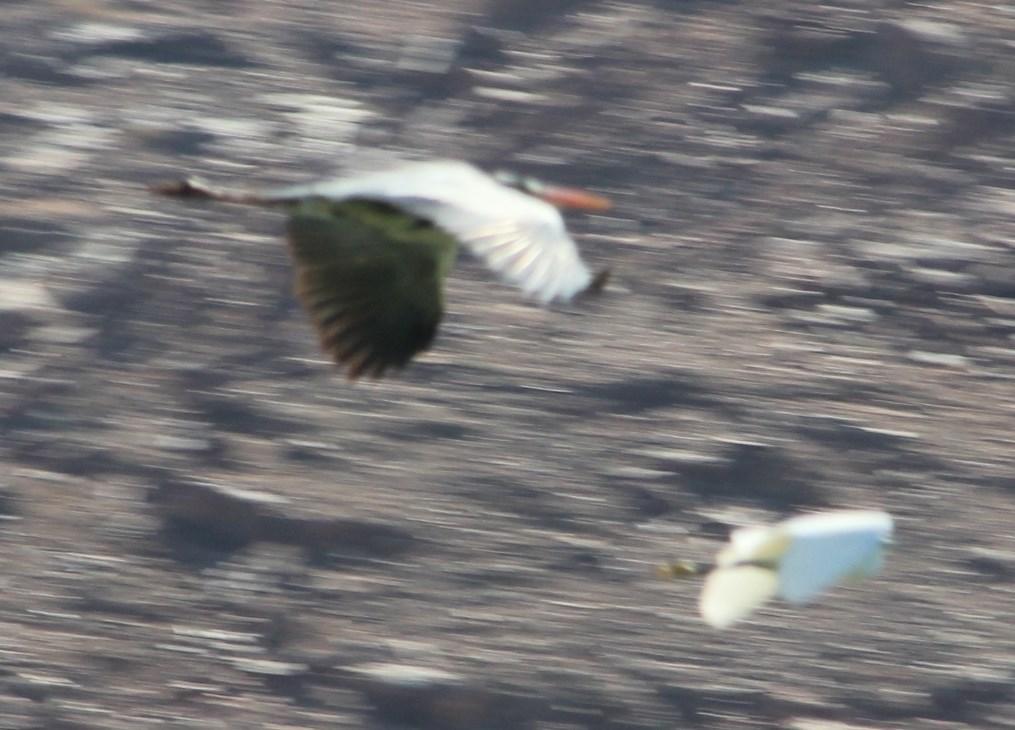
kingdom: Animalia
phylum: Chordata
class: Aves
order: Pelecaniformes
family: Ardeidae
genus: Egretta
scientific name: Egretta garzetta
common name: Little egret
